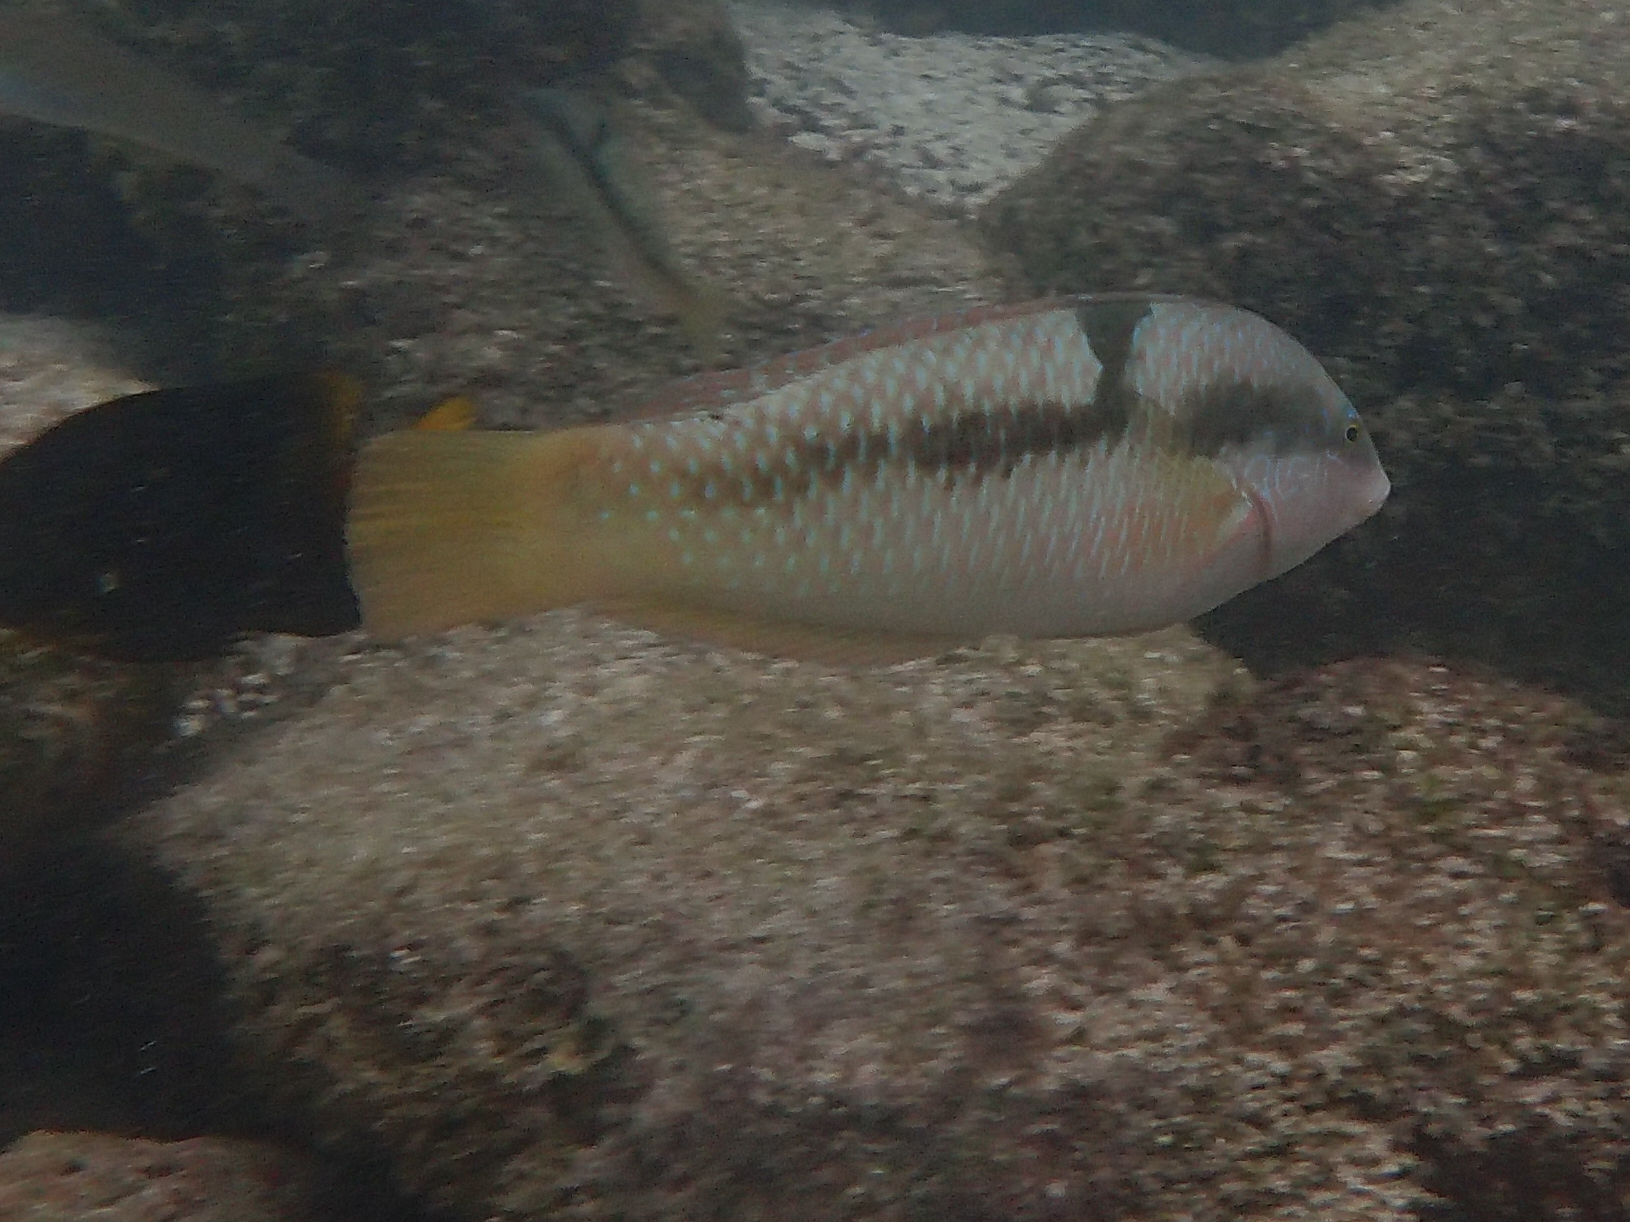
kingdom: Animalia
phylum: Chordata
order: Perciformes
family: Labridae
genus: Halichoeres
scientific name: Halichoeres nicholsi
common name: Spinster wrasse
